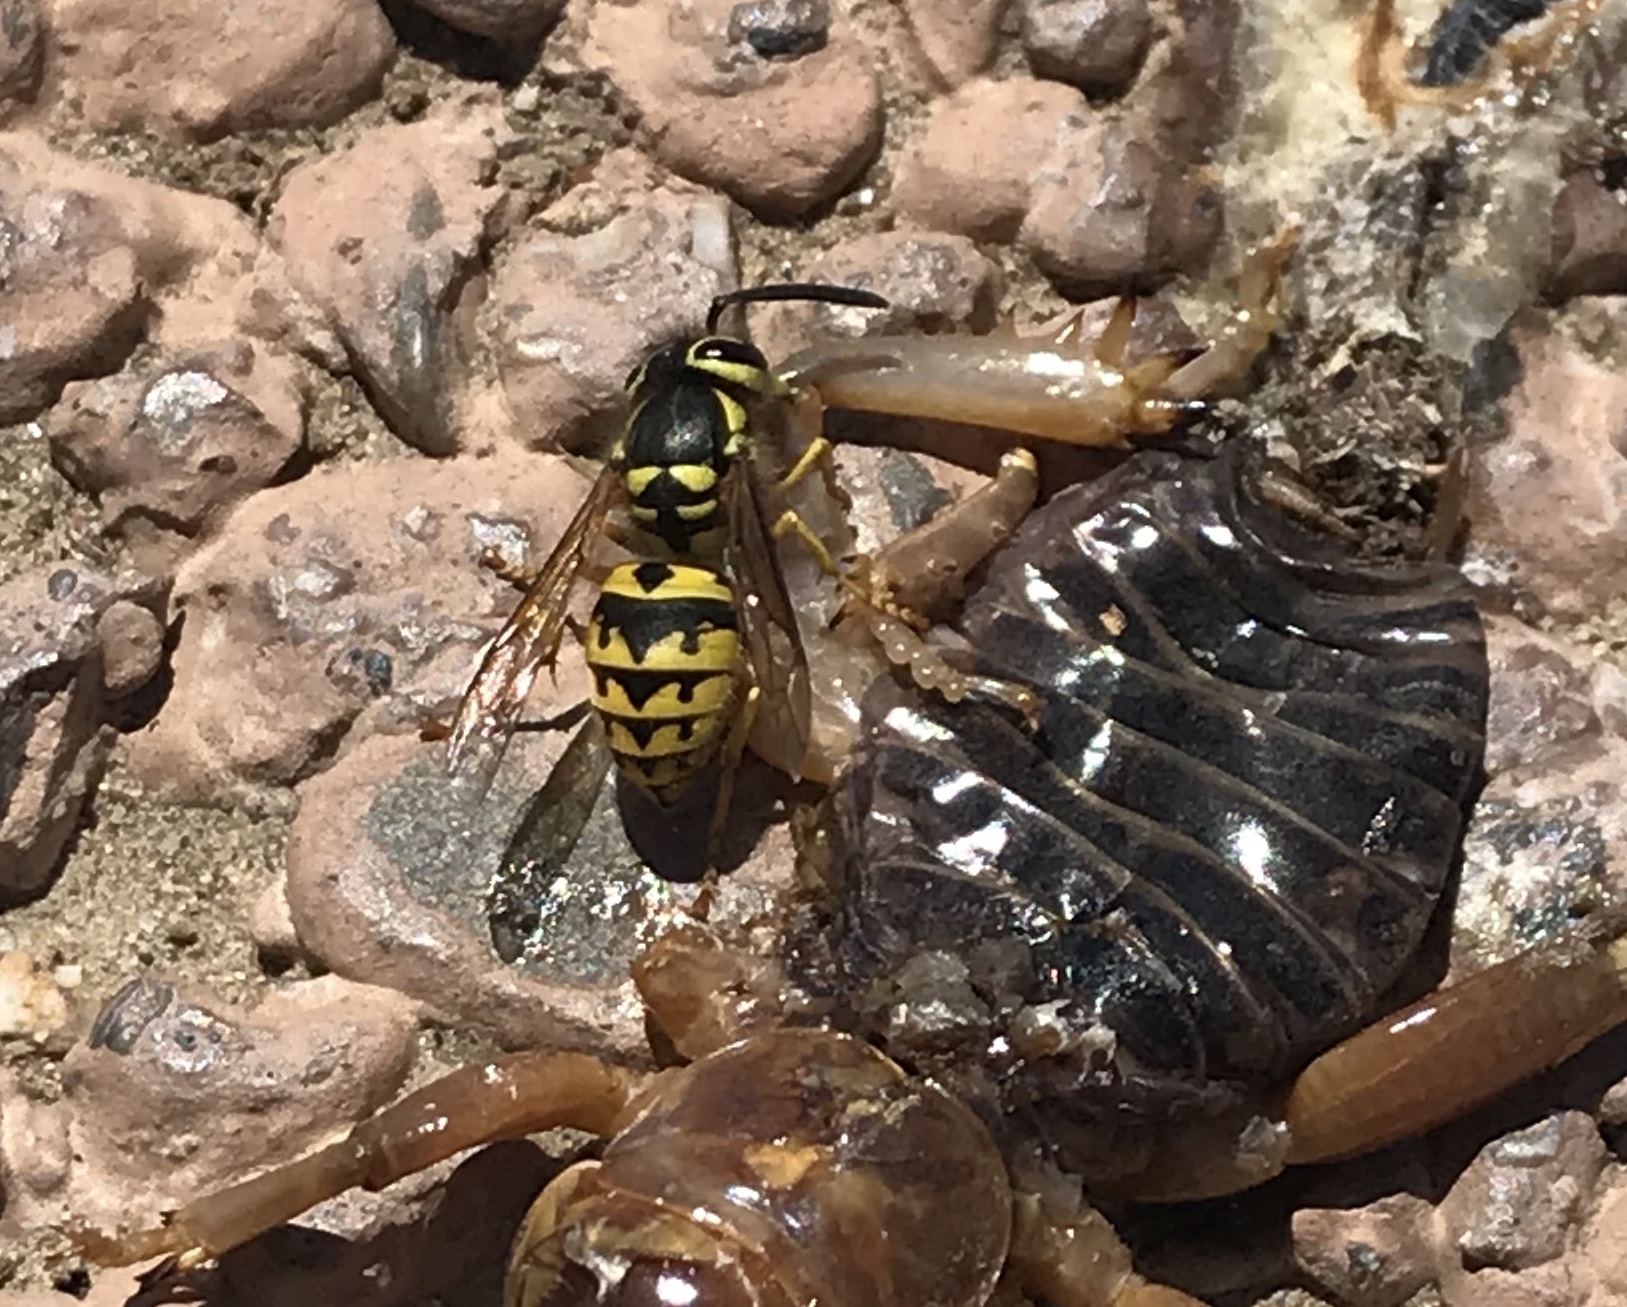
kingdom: Animalia
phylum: Arthropoda
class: Insecta
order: Hymenoptera
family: Vespidae
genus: Vespula
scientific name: Vespula pensylvanica
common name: Western yellowjacket
